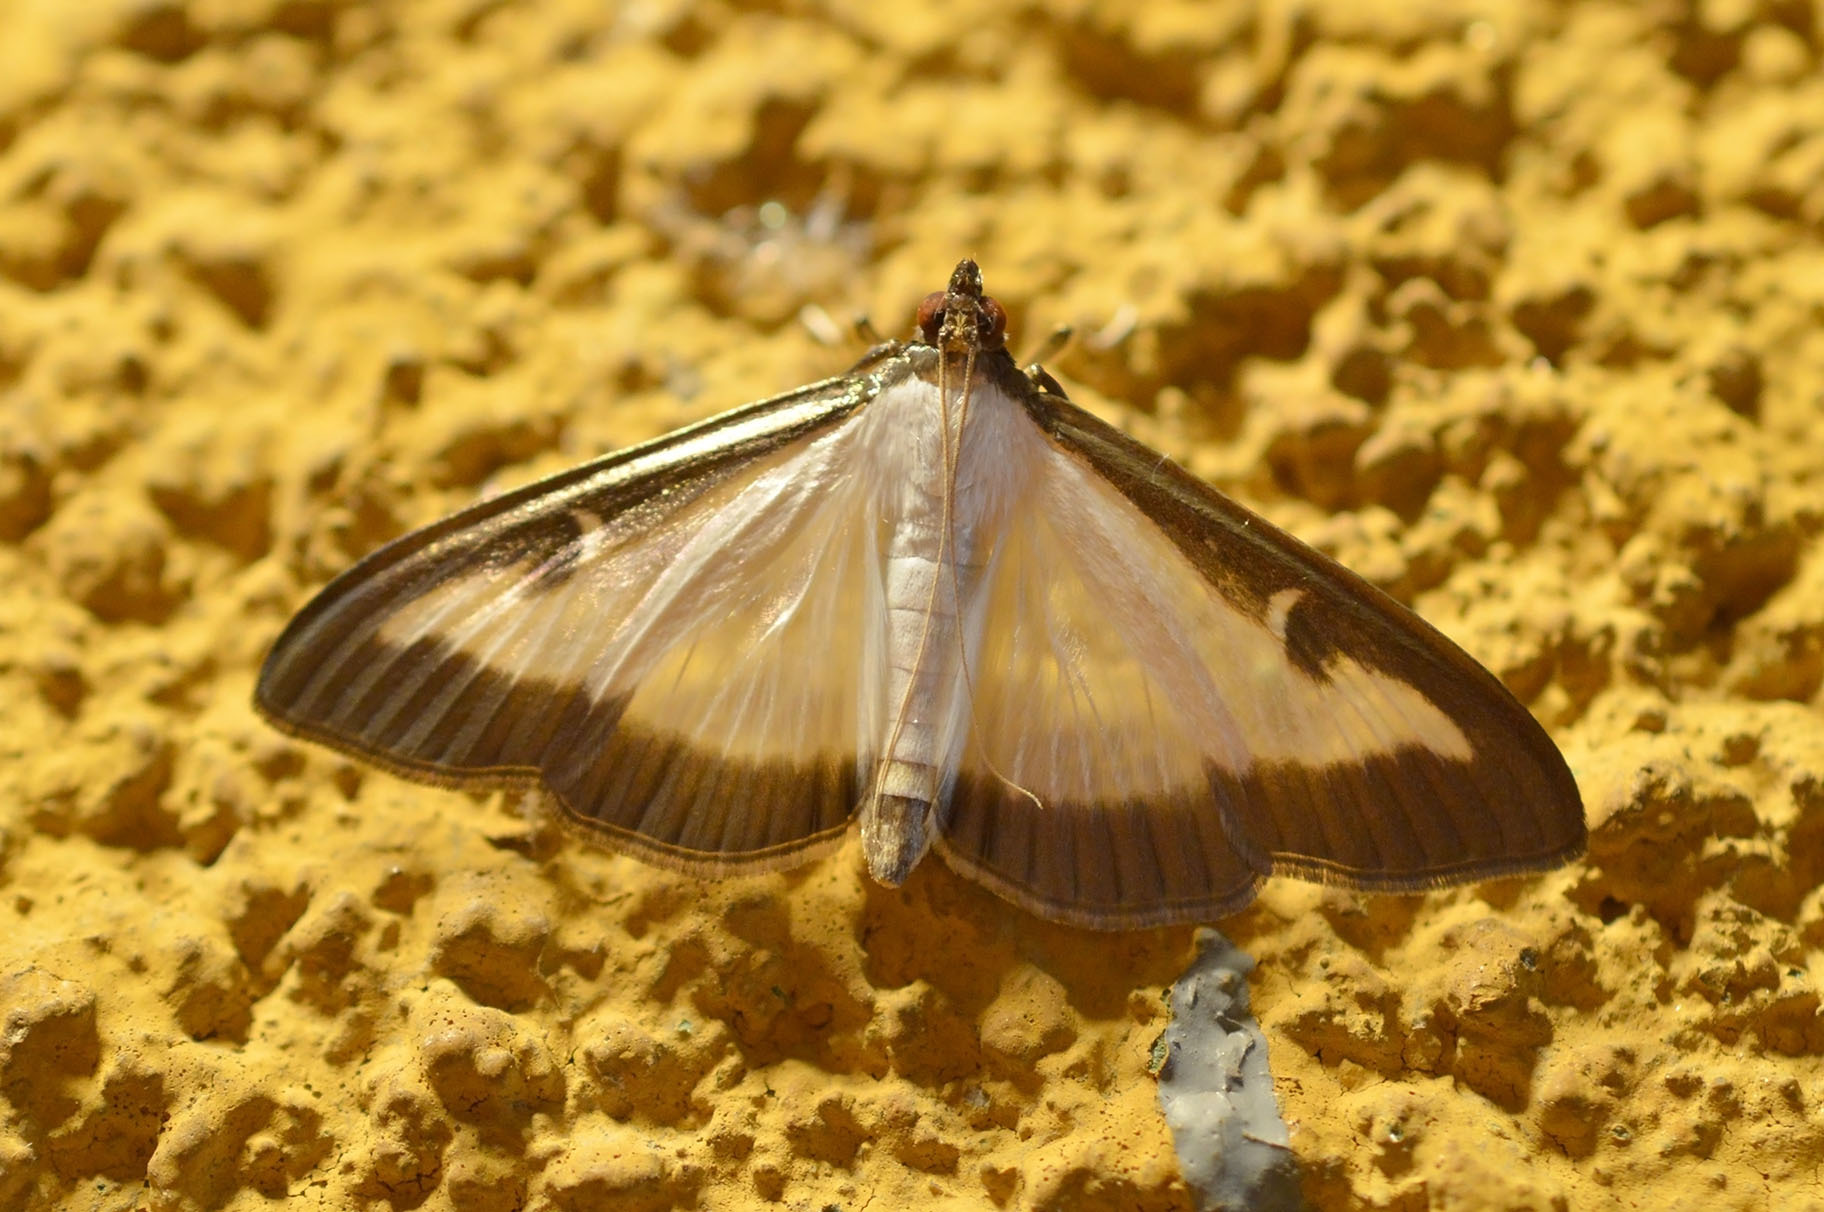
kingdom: Animalia
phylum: Arthropoda
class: Insecta
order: Lepidoptera
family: Crambidae
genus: Cydalima
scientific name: Cydalima perspectalis
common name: Box tree moth
